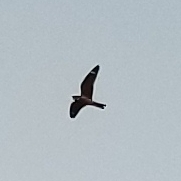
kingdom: Animalia
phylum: Chordata
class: Aves
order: Caprimulgiformes
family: Caprimulgidae
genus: Chordeiles
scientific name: Chordeiles acutipennis
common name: Lesser nighthawk
